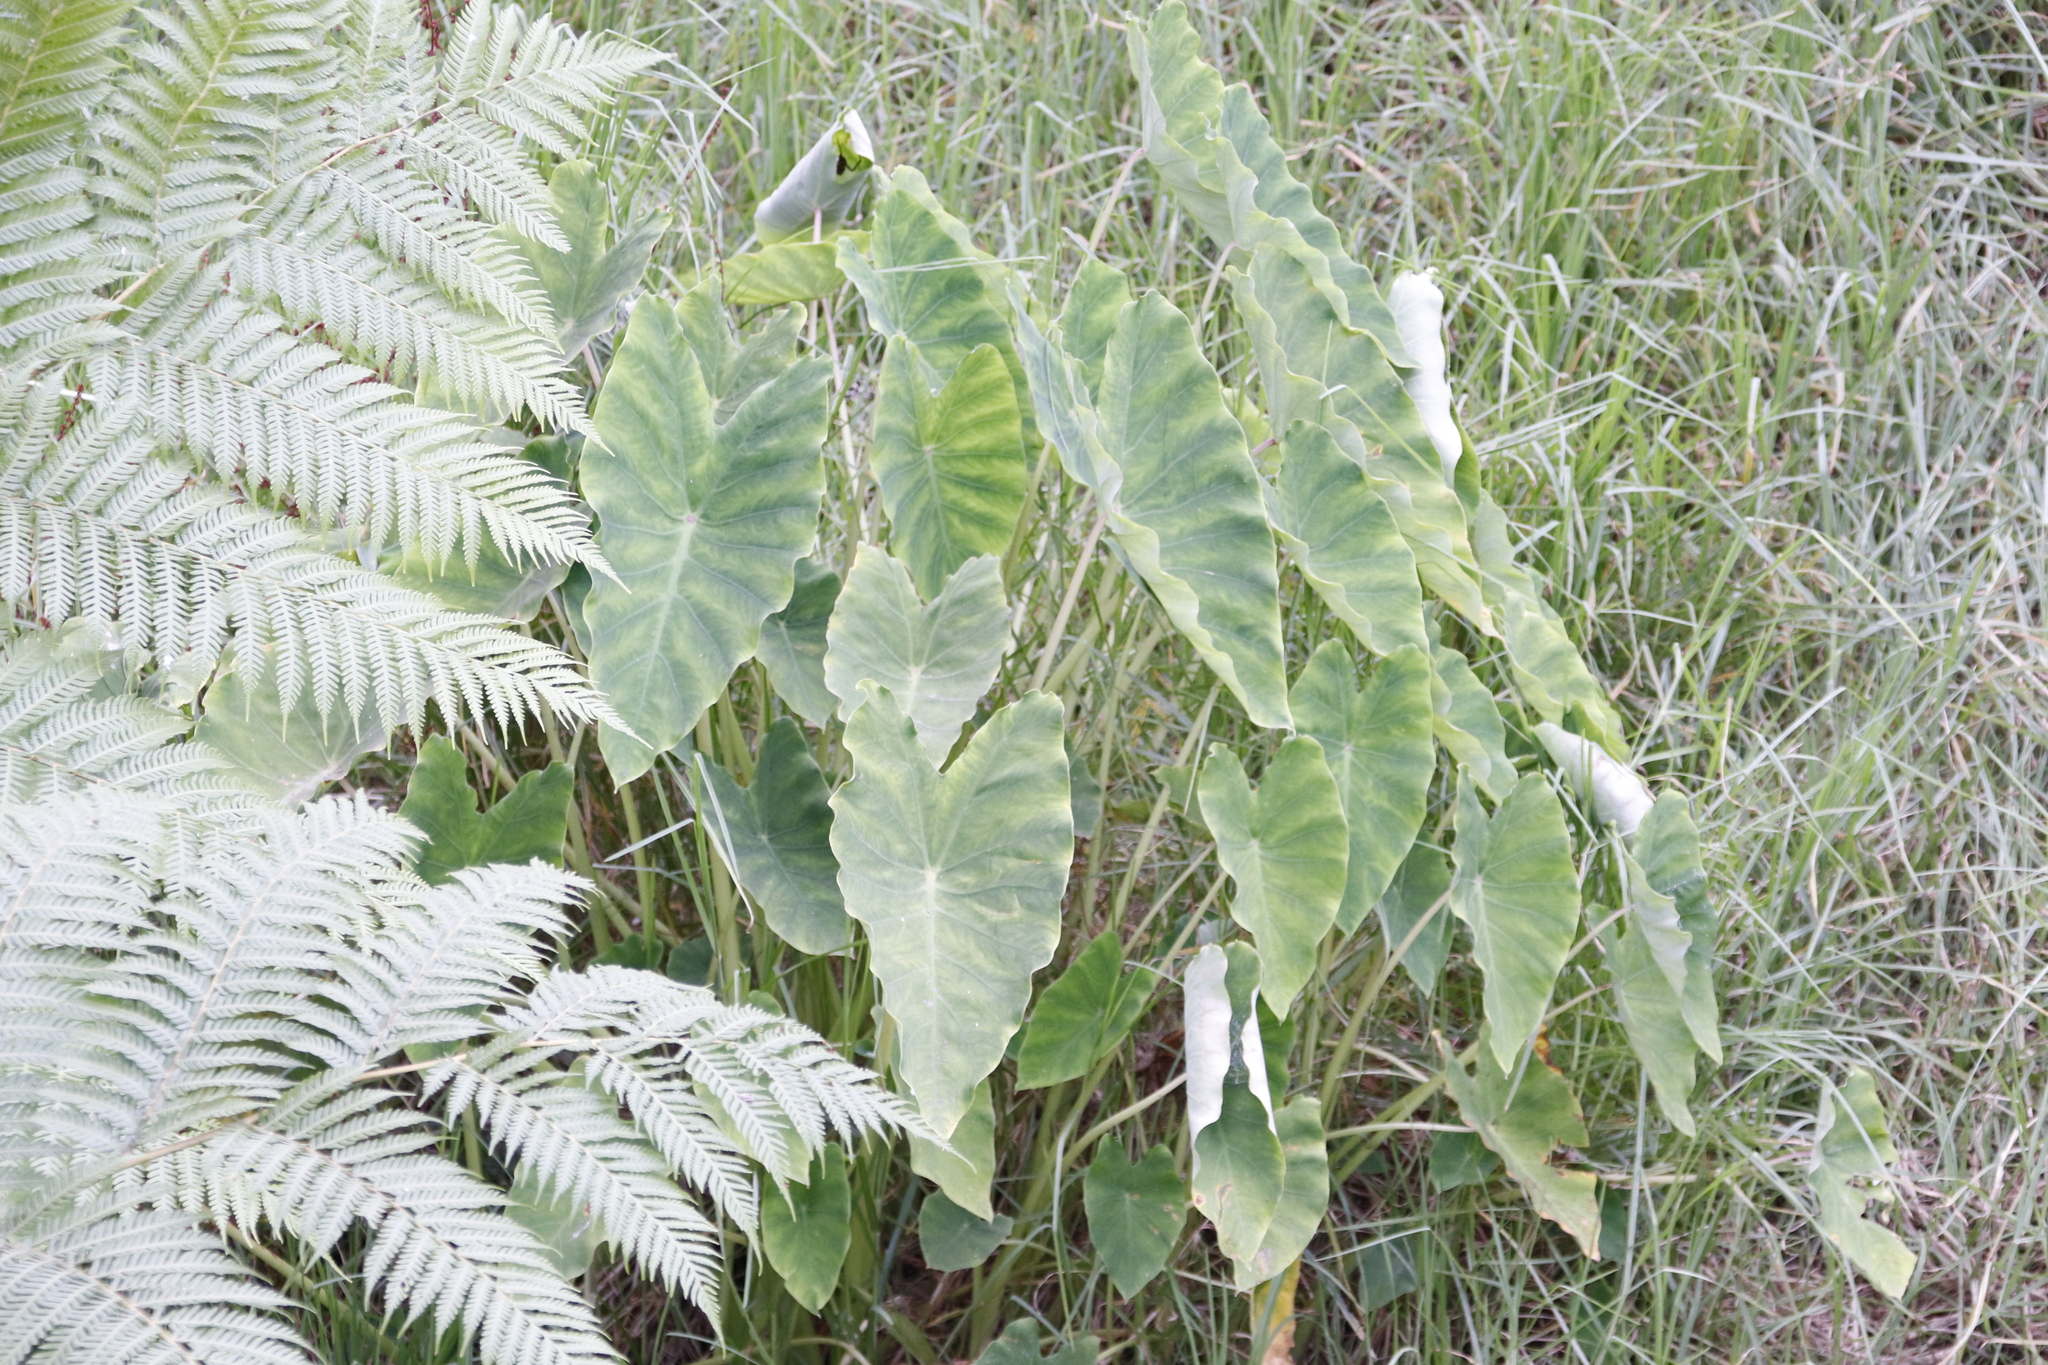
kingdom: Plantae
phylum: Tracheophyta
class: Liliopsida
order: Alismatales
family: Araceae
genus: Colocasia
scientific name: Colocasia esculenta
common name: Taro
